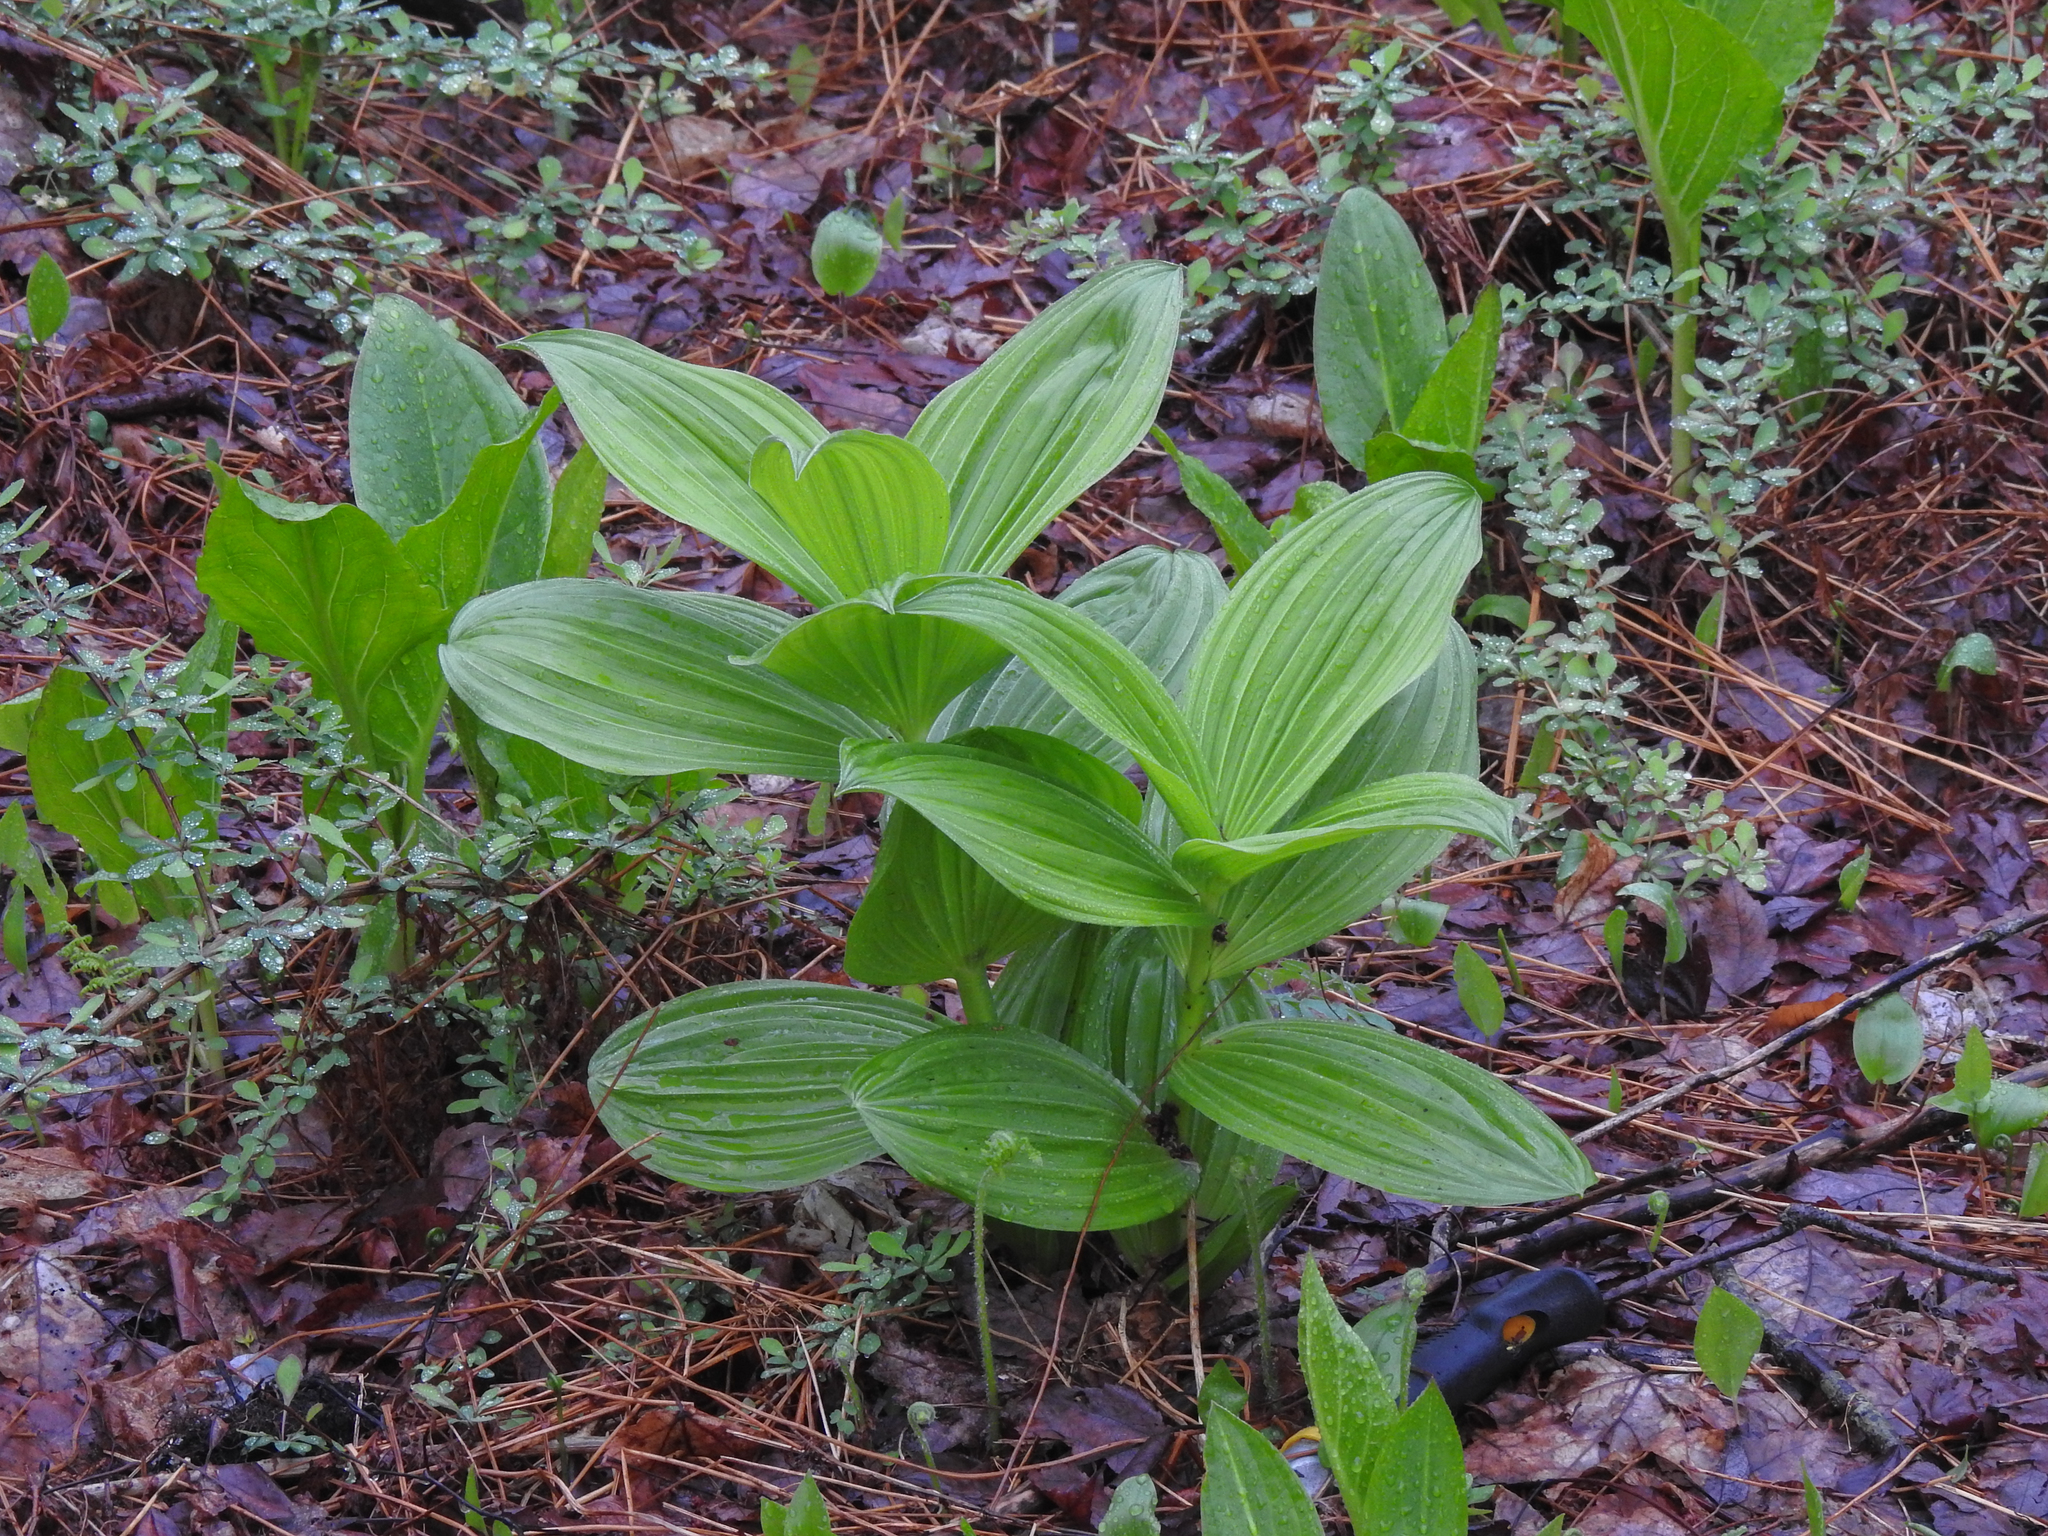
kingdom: Plantae
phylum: Tracheophyta
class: Liliopsida
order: Liliales
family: Melanthiaceae
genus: Veratrum
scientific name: Veratrum viride
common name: American false hellebore
